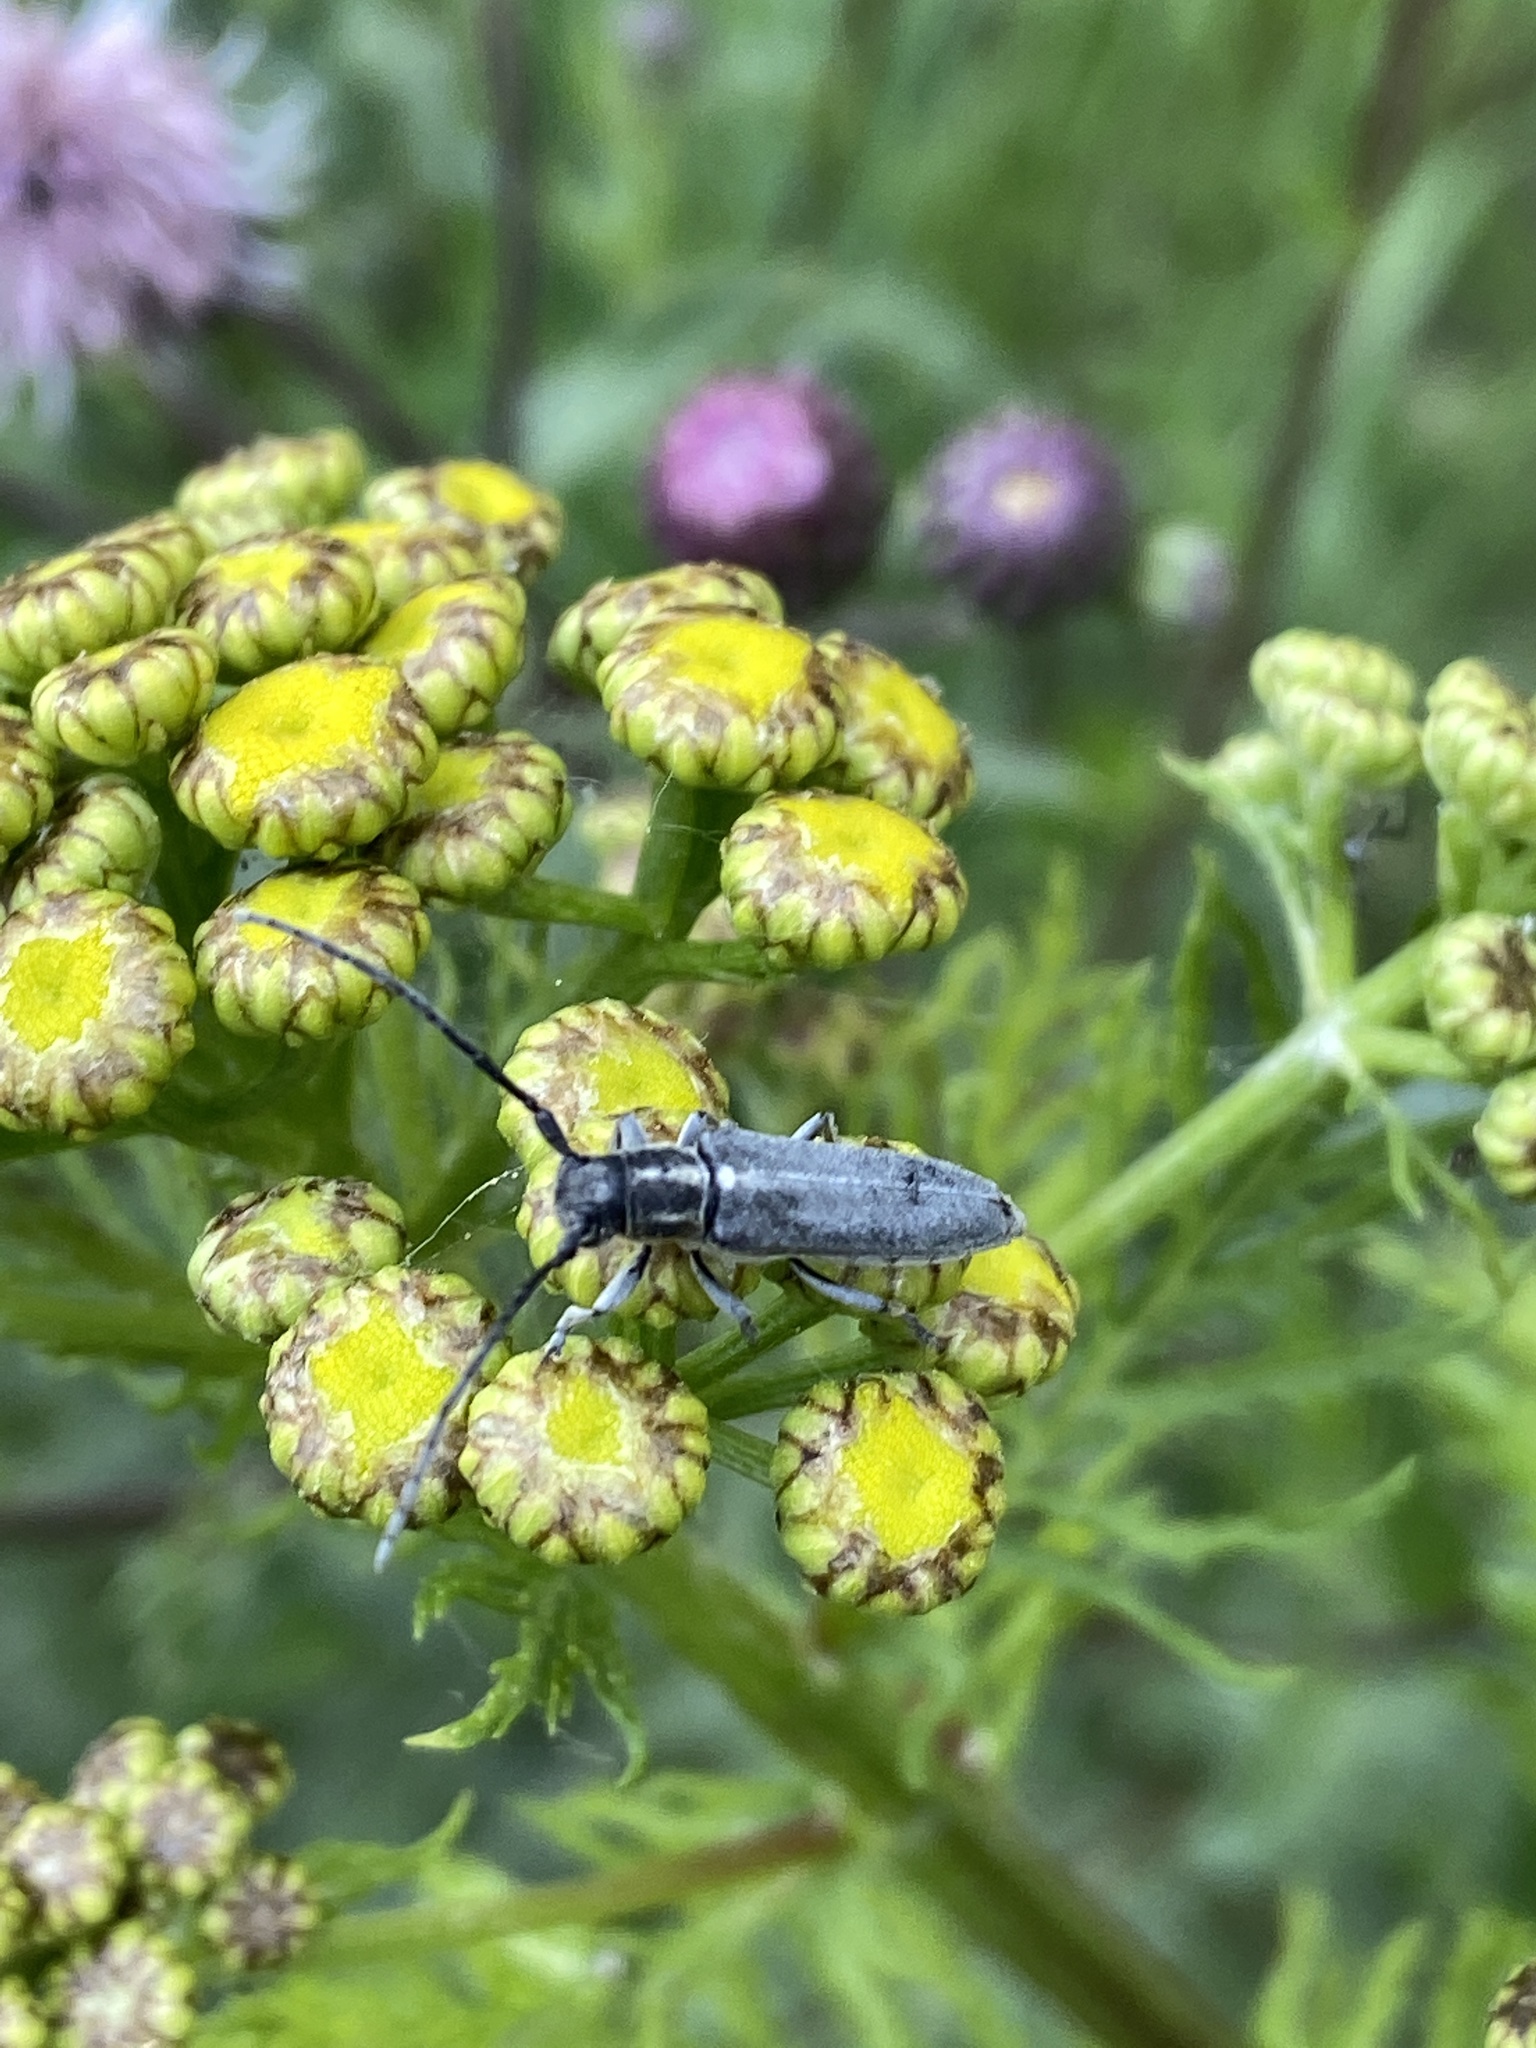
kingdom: Animalia
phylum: Arthropoda
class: Insecta
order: Coleoptera
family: Cerambycidae
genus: Phytoecia
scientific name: Phytoecia nigricornis
